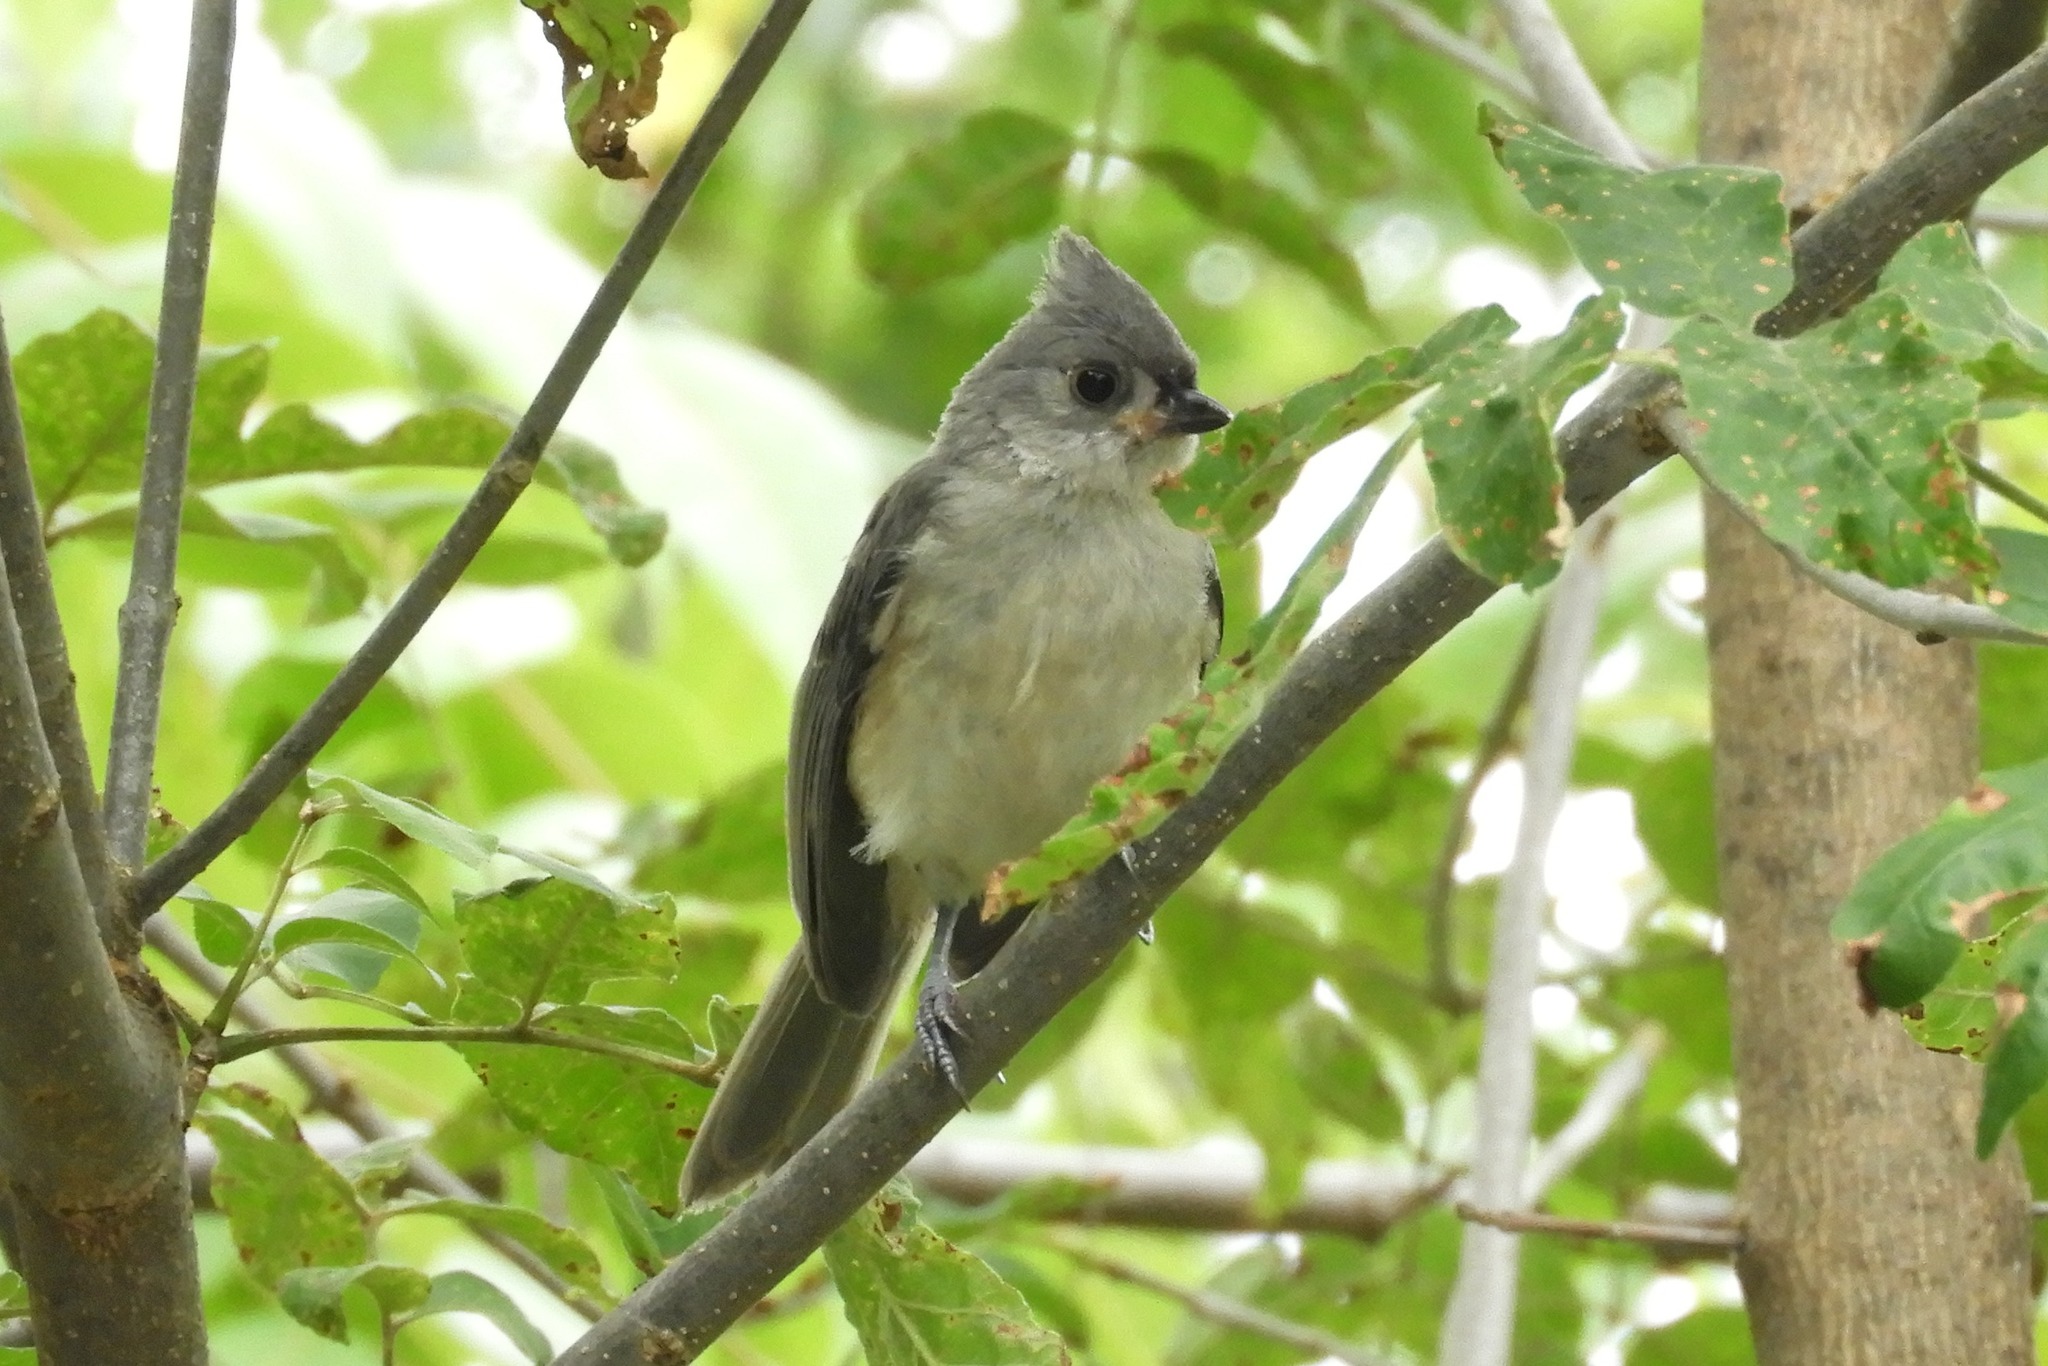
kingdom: Animalia
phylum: Chordata
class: Aves
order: Passeriformes
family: Paridae
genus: Baeolophus
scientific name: Baeolophus bicolor
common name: Tufted titmouse
